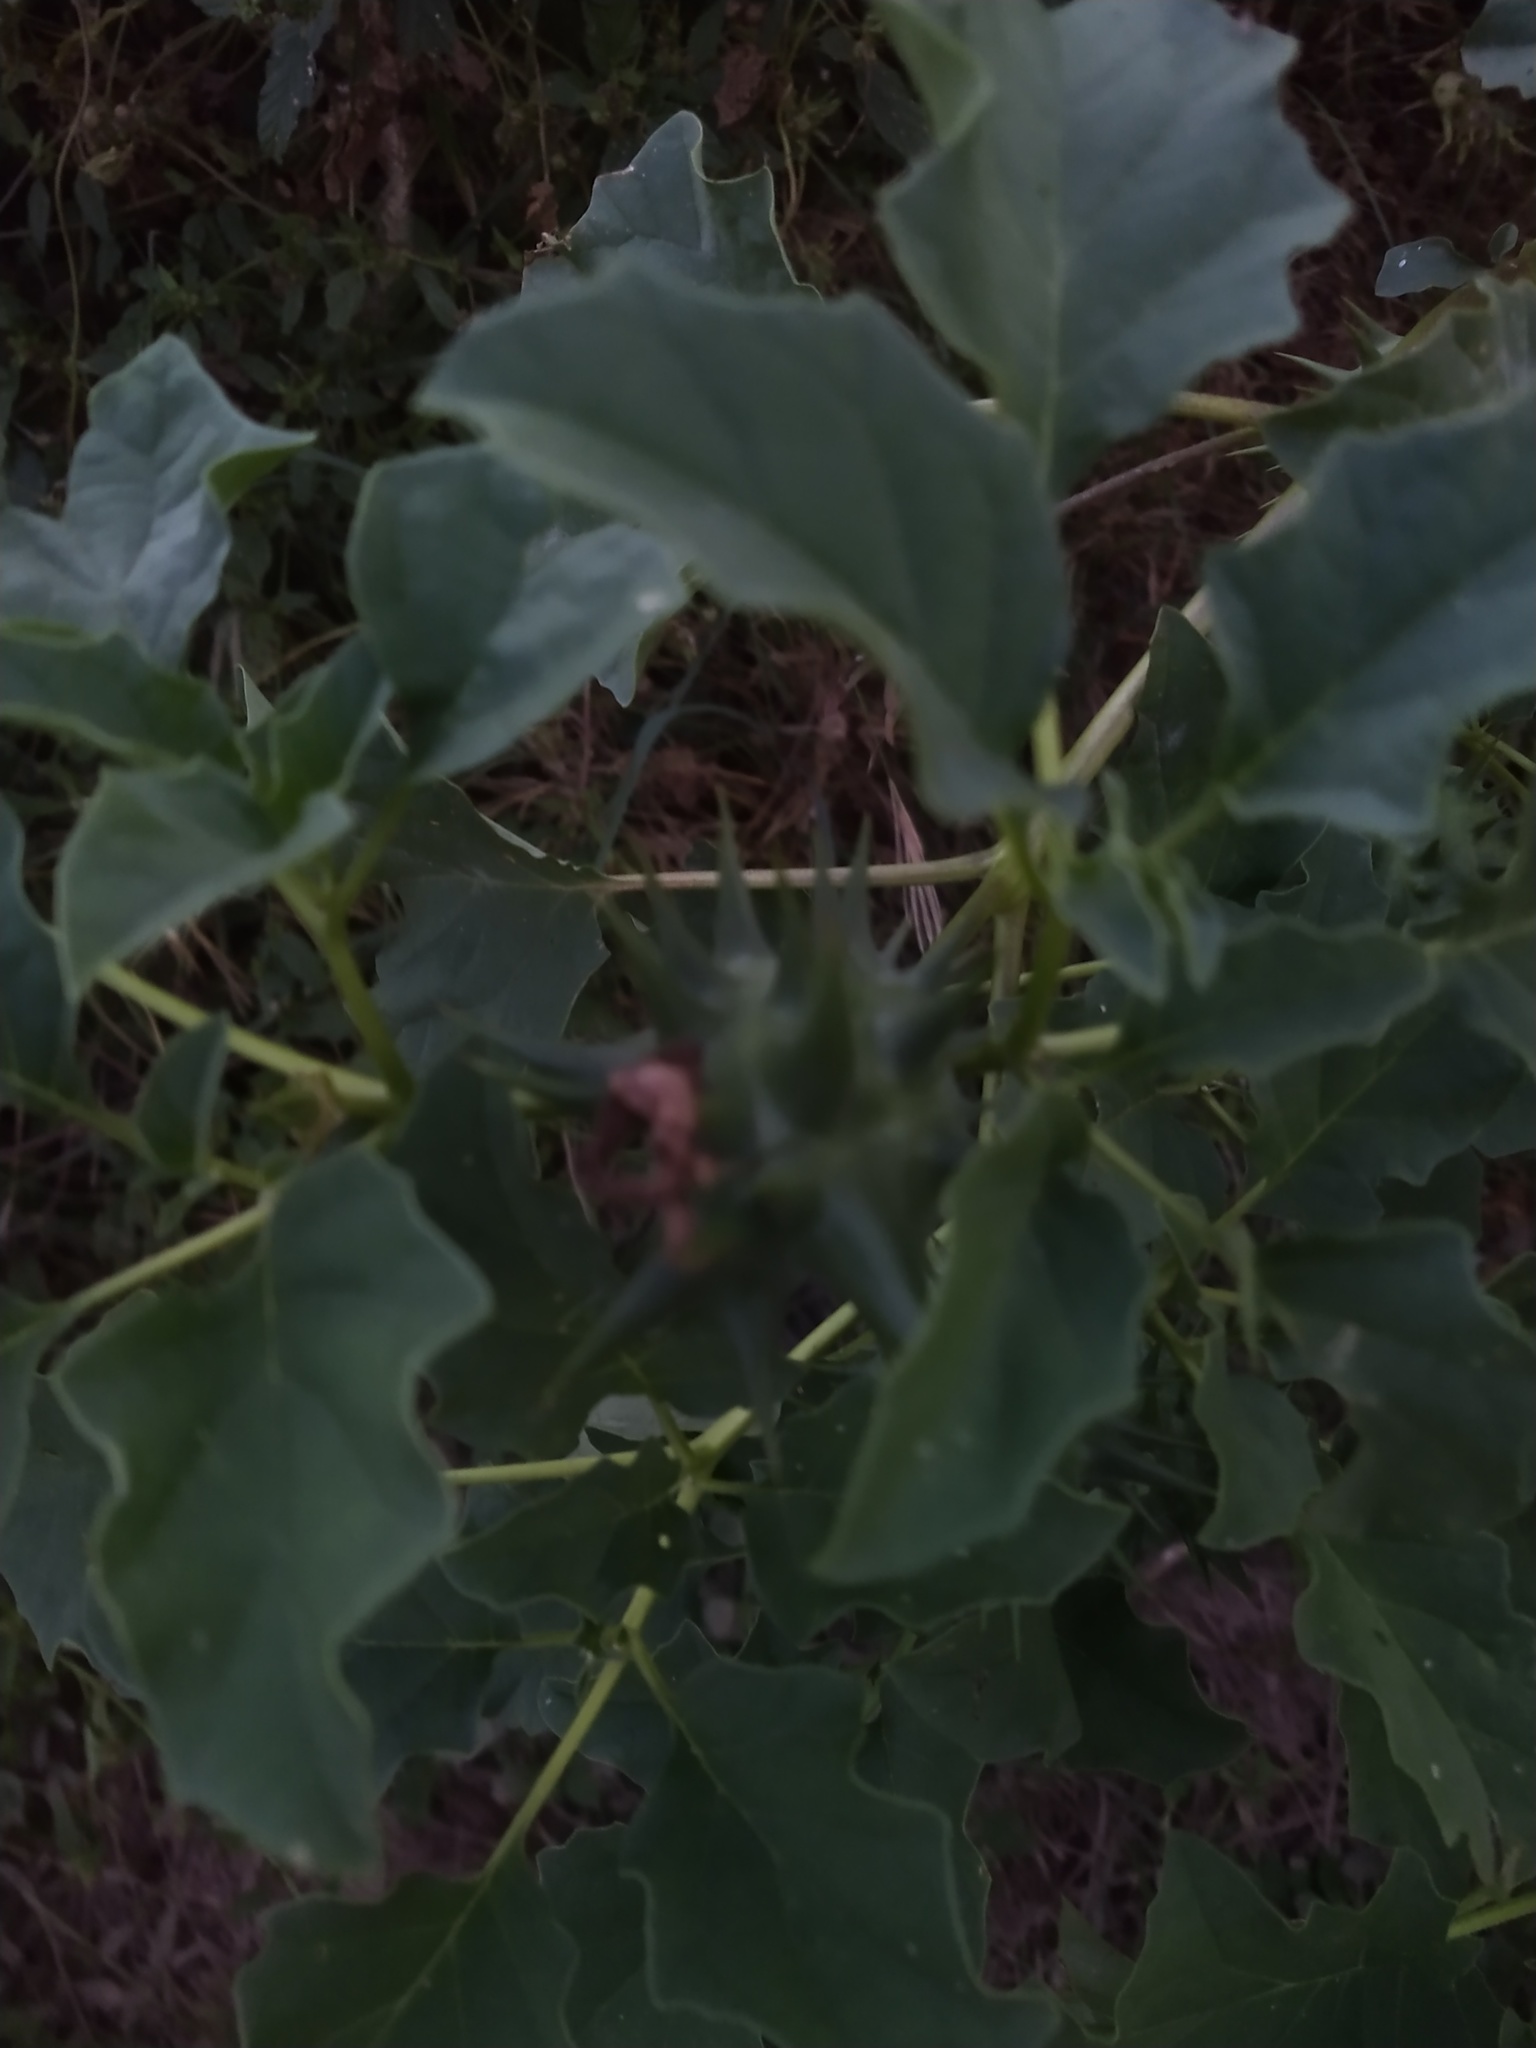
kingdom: Plantae
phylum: Tracheophyta
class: Magnoliopsida
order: Solanales
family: Solanaceae
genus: Datura
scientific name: Datura ferox
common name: Angel's-trumpets
